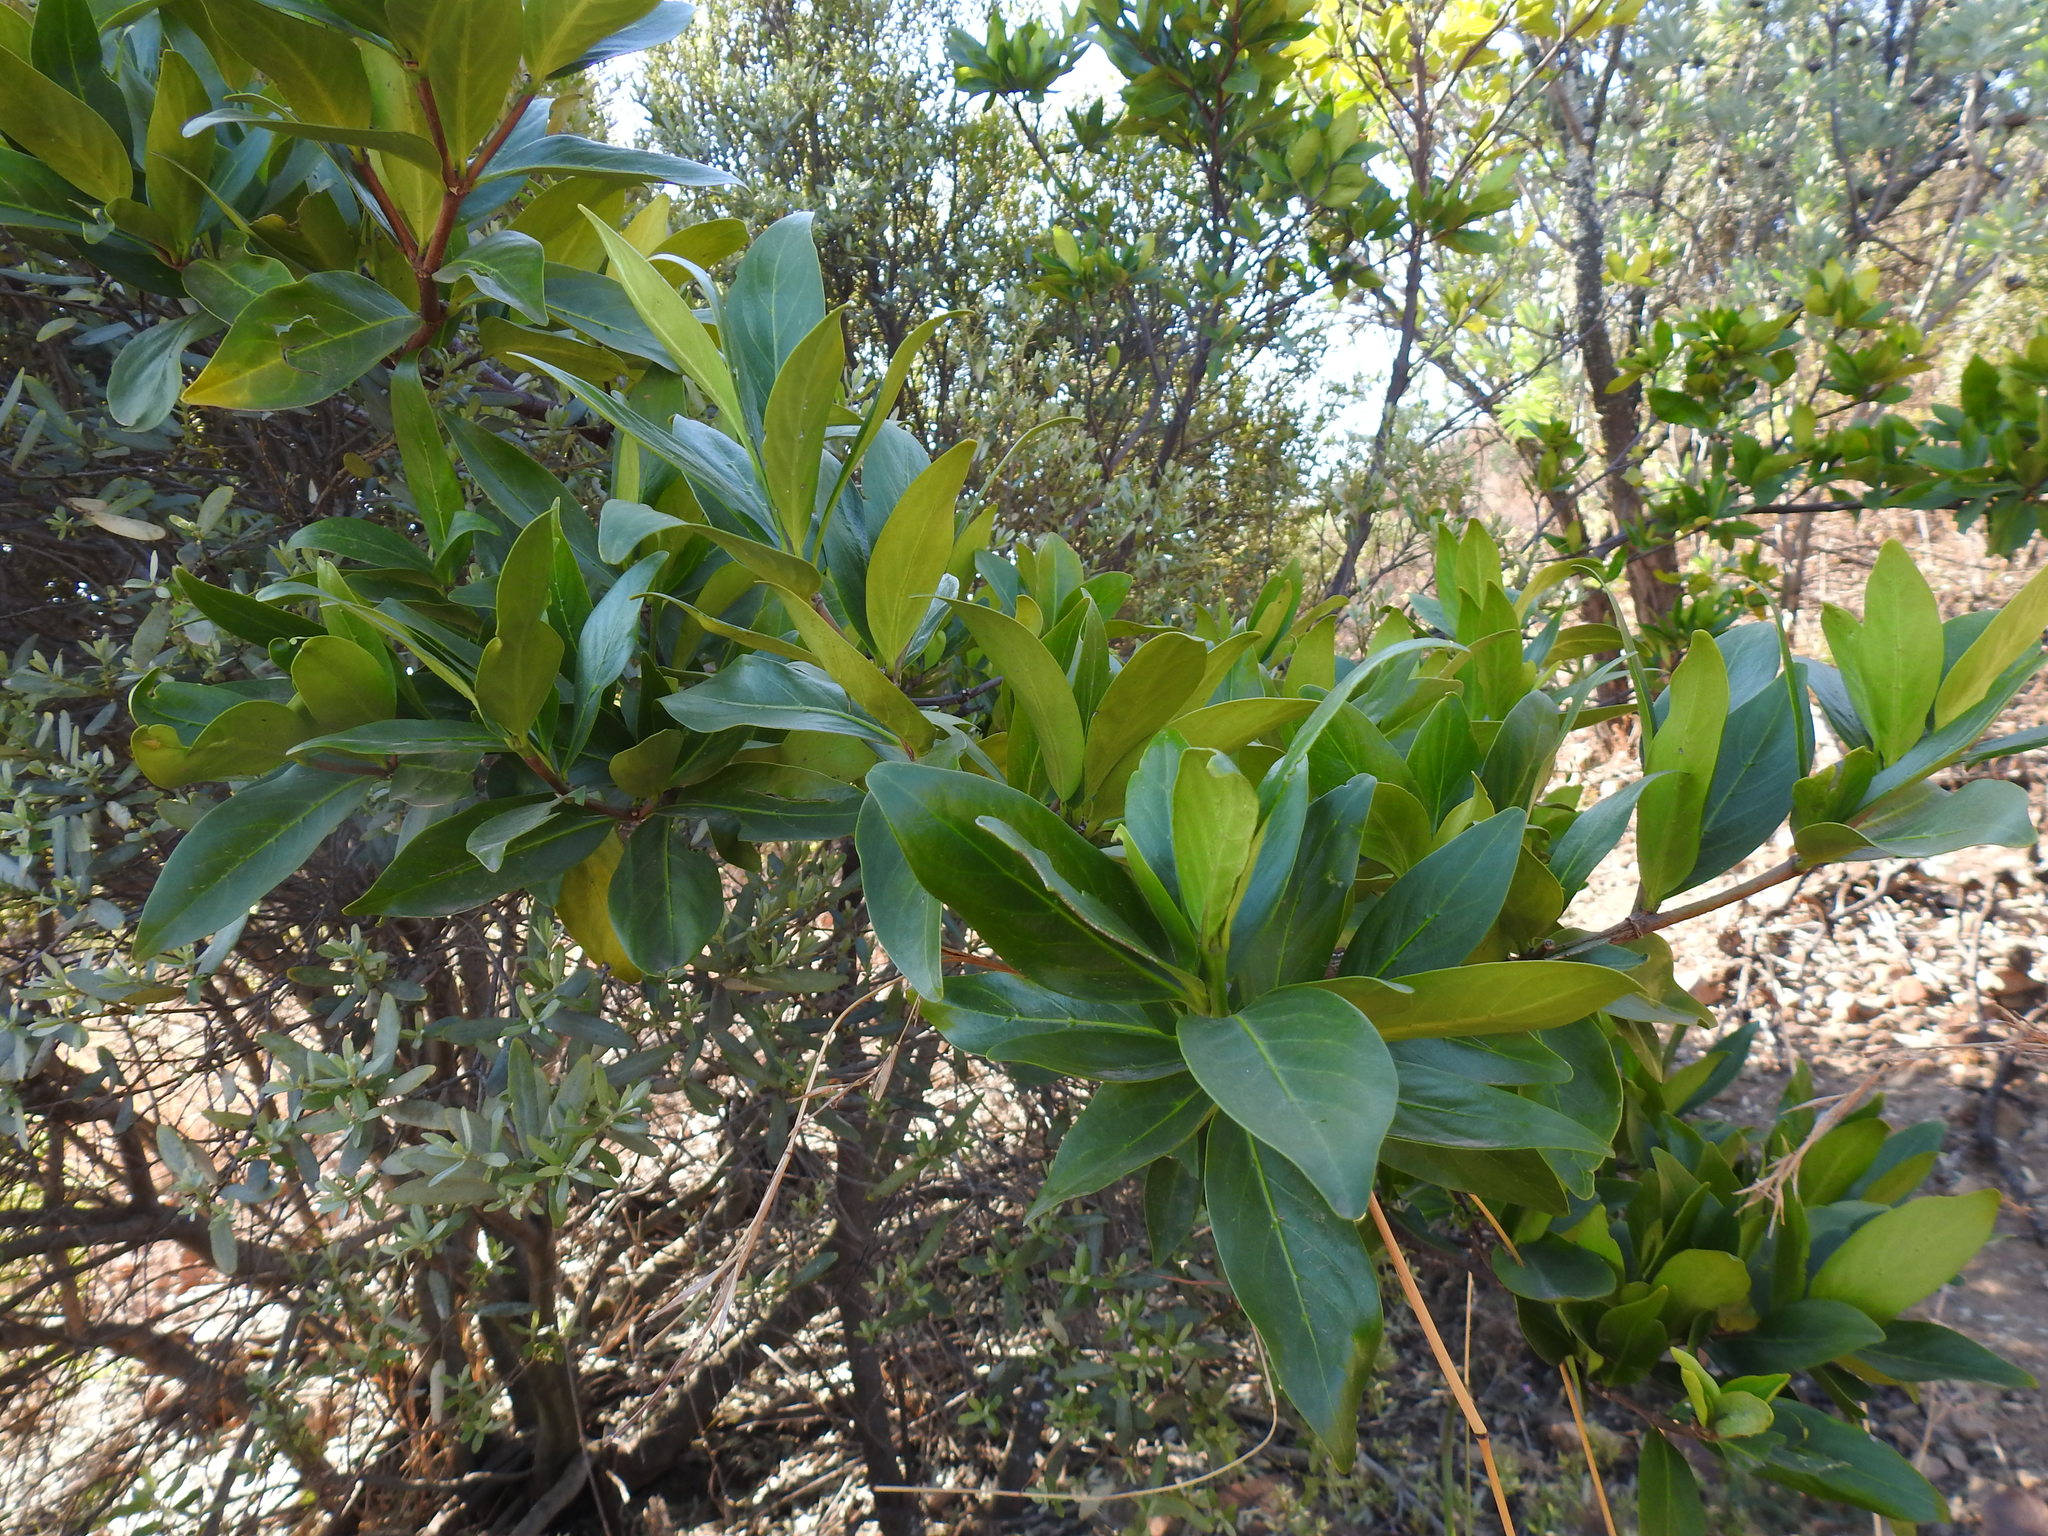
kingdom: Plantae
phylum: Tracheophyta
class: Magnoliopsida
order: Gentianales
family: Rubiaceae
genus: Rothmannia
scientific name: Rothmannia capensis
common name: Cape gardenia
